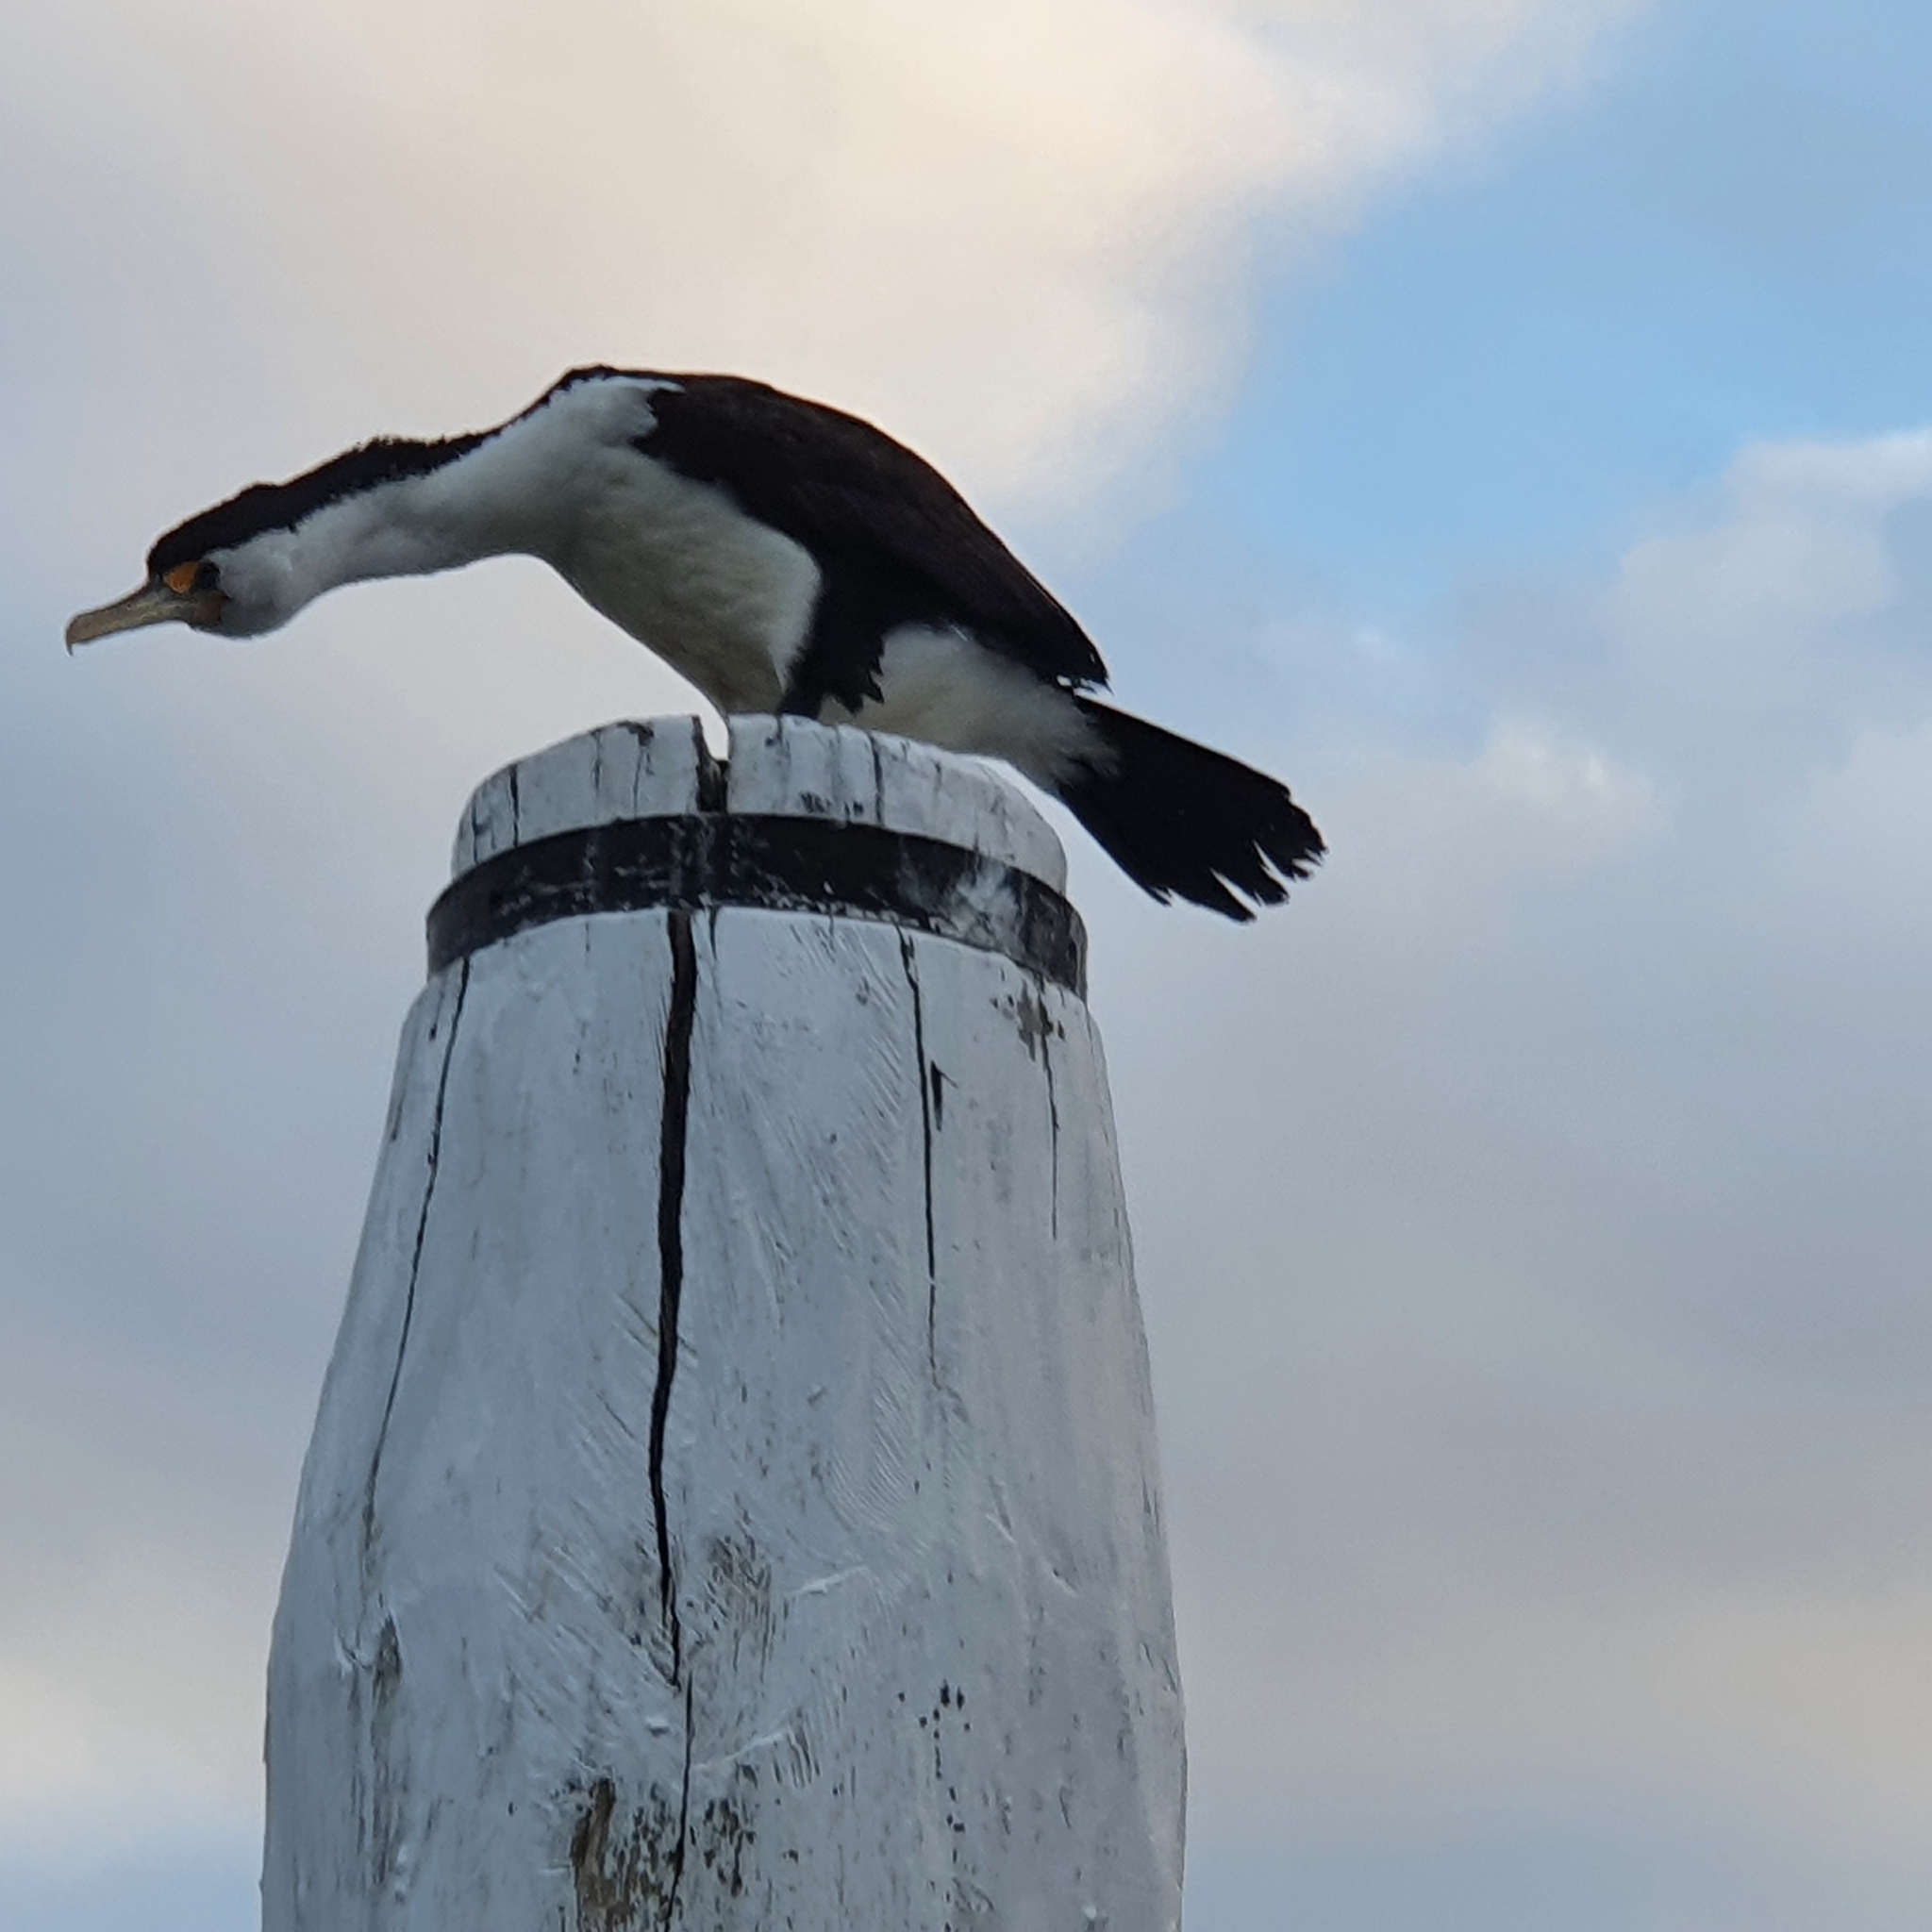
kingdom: Animalia
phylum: Chordata
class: Aves
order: Suliformes
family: Phalacrocoracidae
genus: Phalacrocorax
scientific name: Phalacrocorax varius
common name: Pied cormorant
